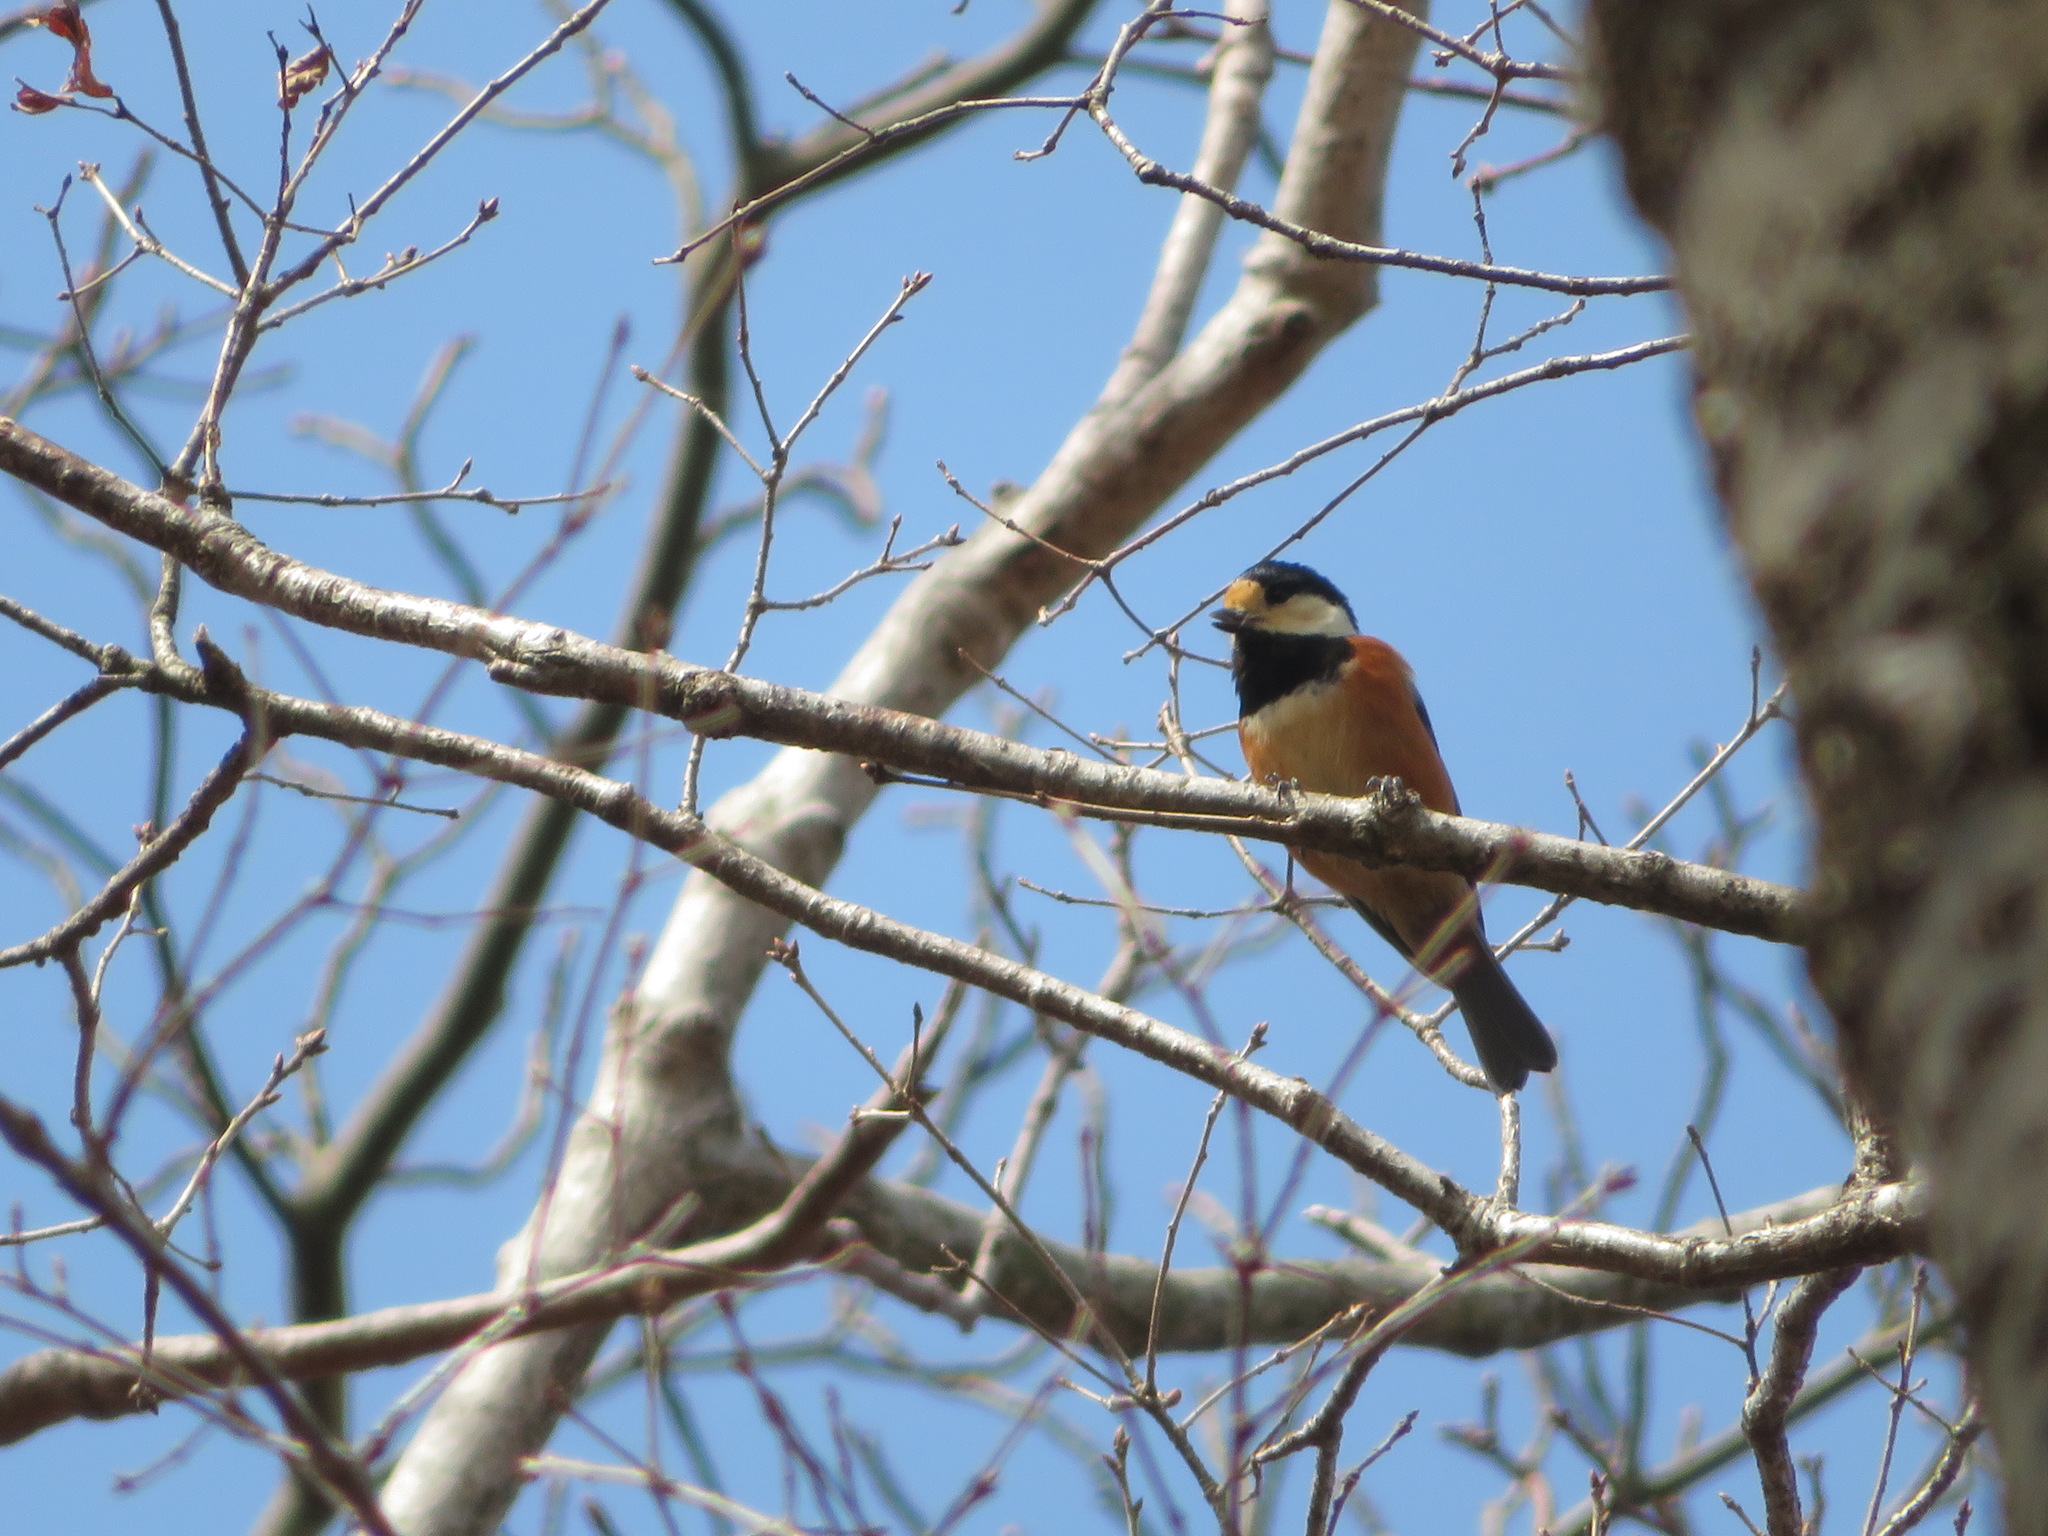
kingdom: Animalia
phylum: Chordata
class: Aves
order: Passeriformes
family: Paridae
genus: Poecile
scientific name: Poecile varius
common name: Varied tit
